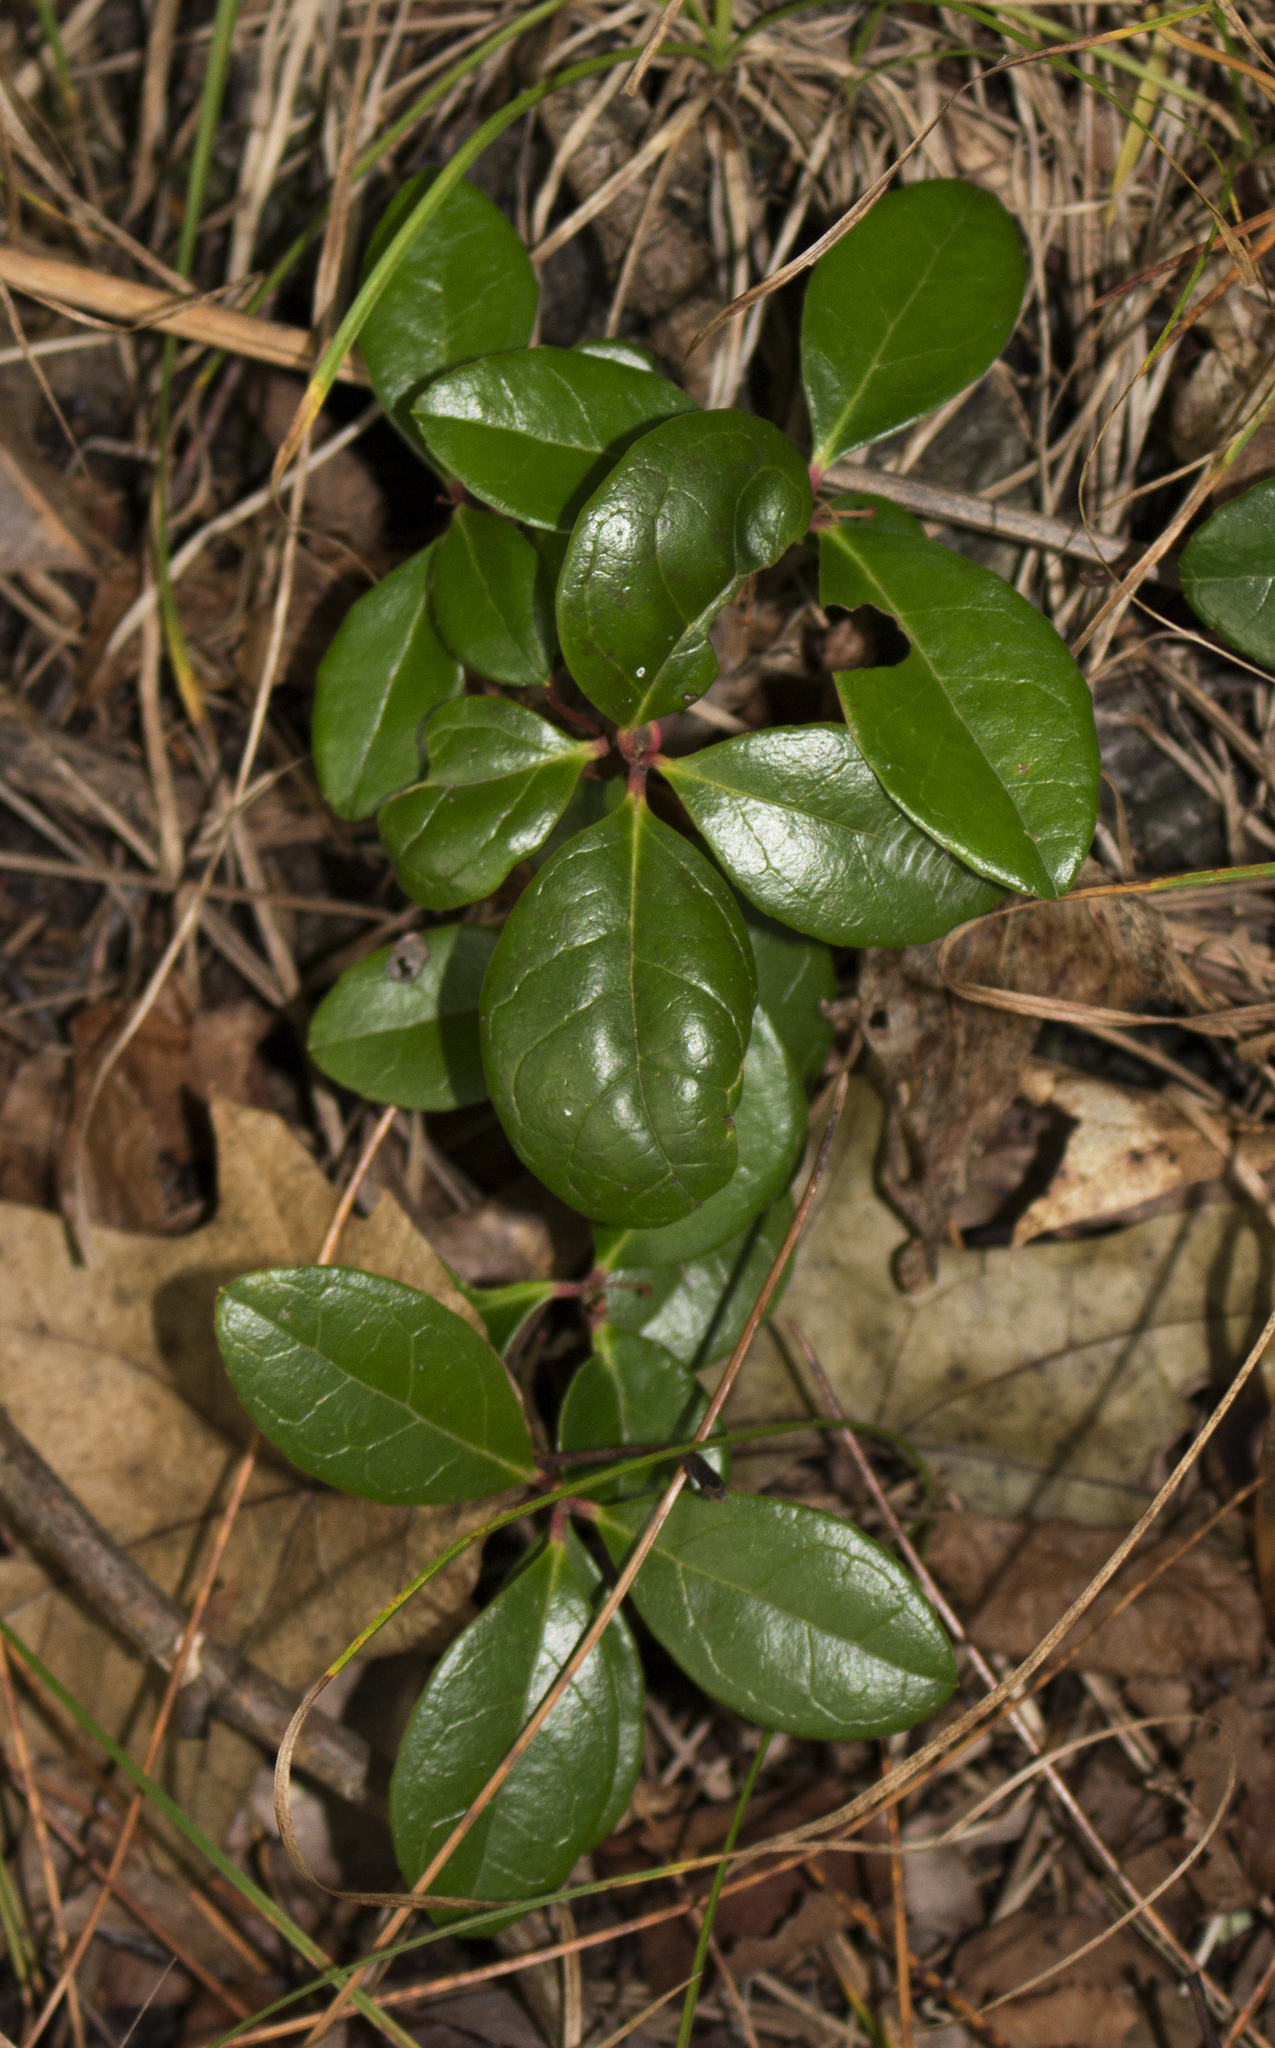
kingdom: Plantae
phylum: Tracheophyta
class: Magnoliopsida
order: Ericales
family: Ericaceae
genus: Gaultheria
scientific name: Gaultheria procumbens
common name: Checkerberry
